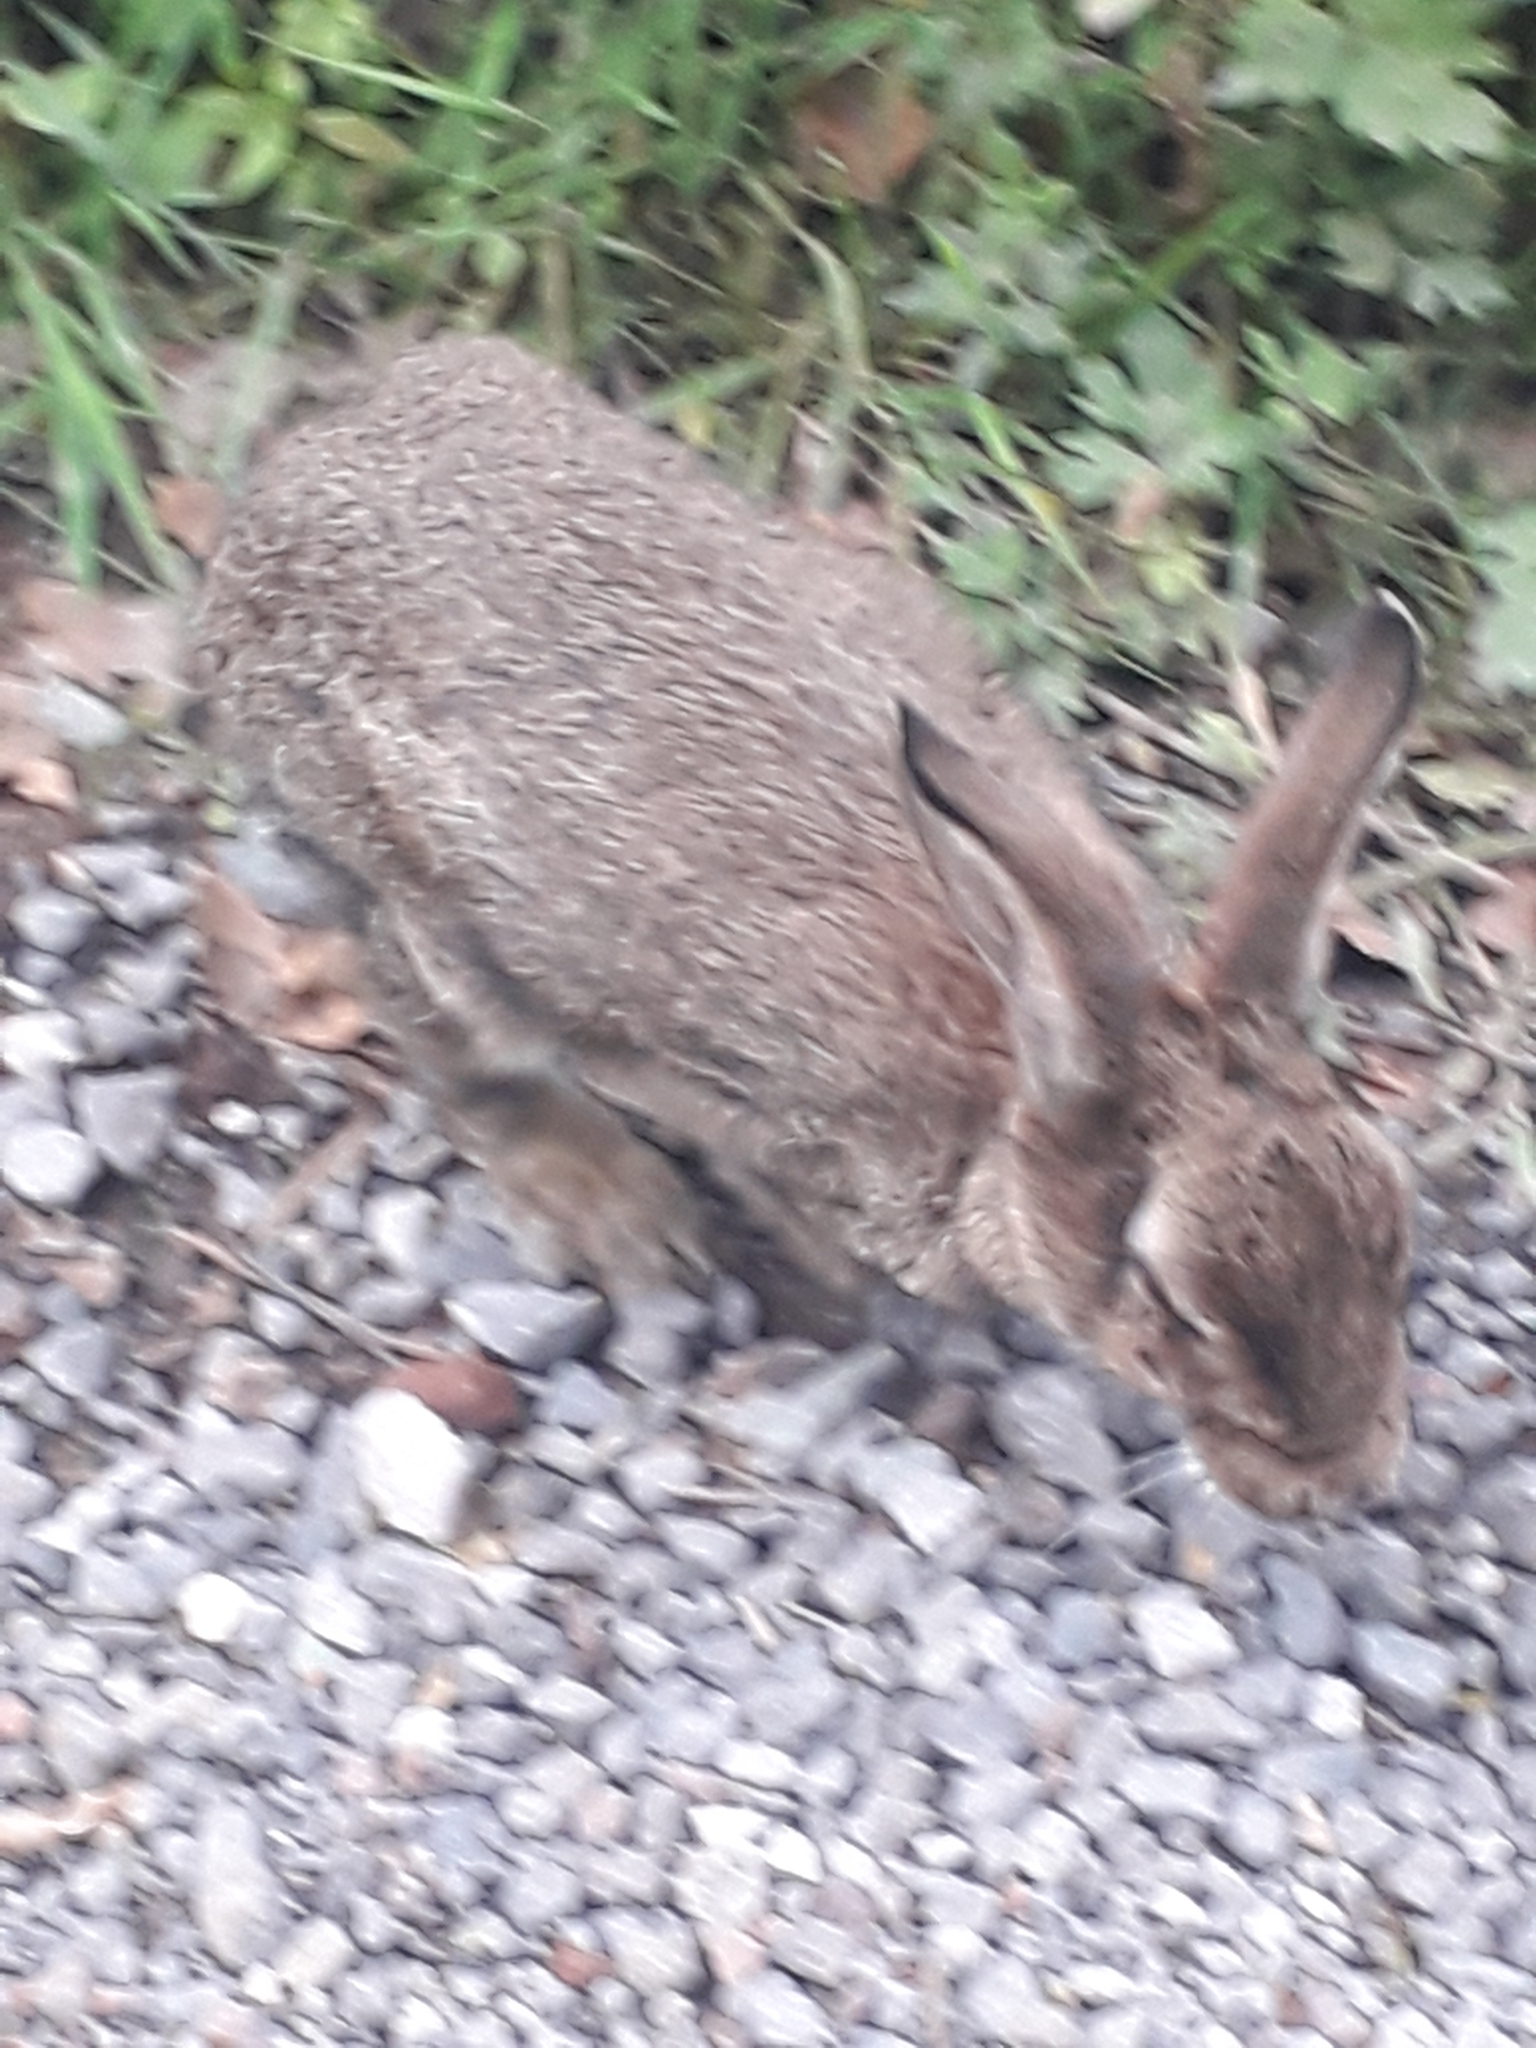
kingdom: Animalia
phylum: Chordata
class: Mammalia
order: Lagomorpha
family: Leporidae
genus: Oryctolagus
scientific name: Oryctolagus cuniculus
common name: European rabbit
